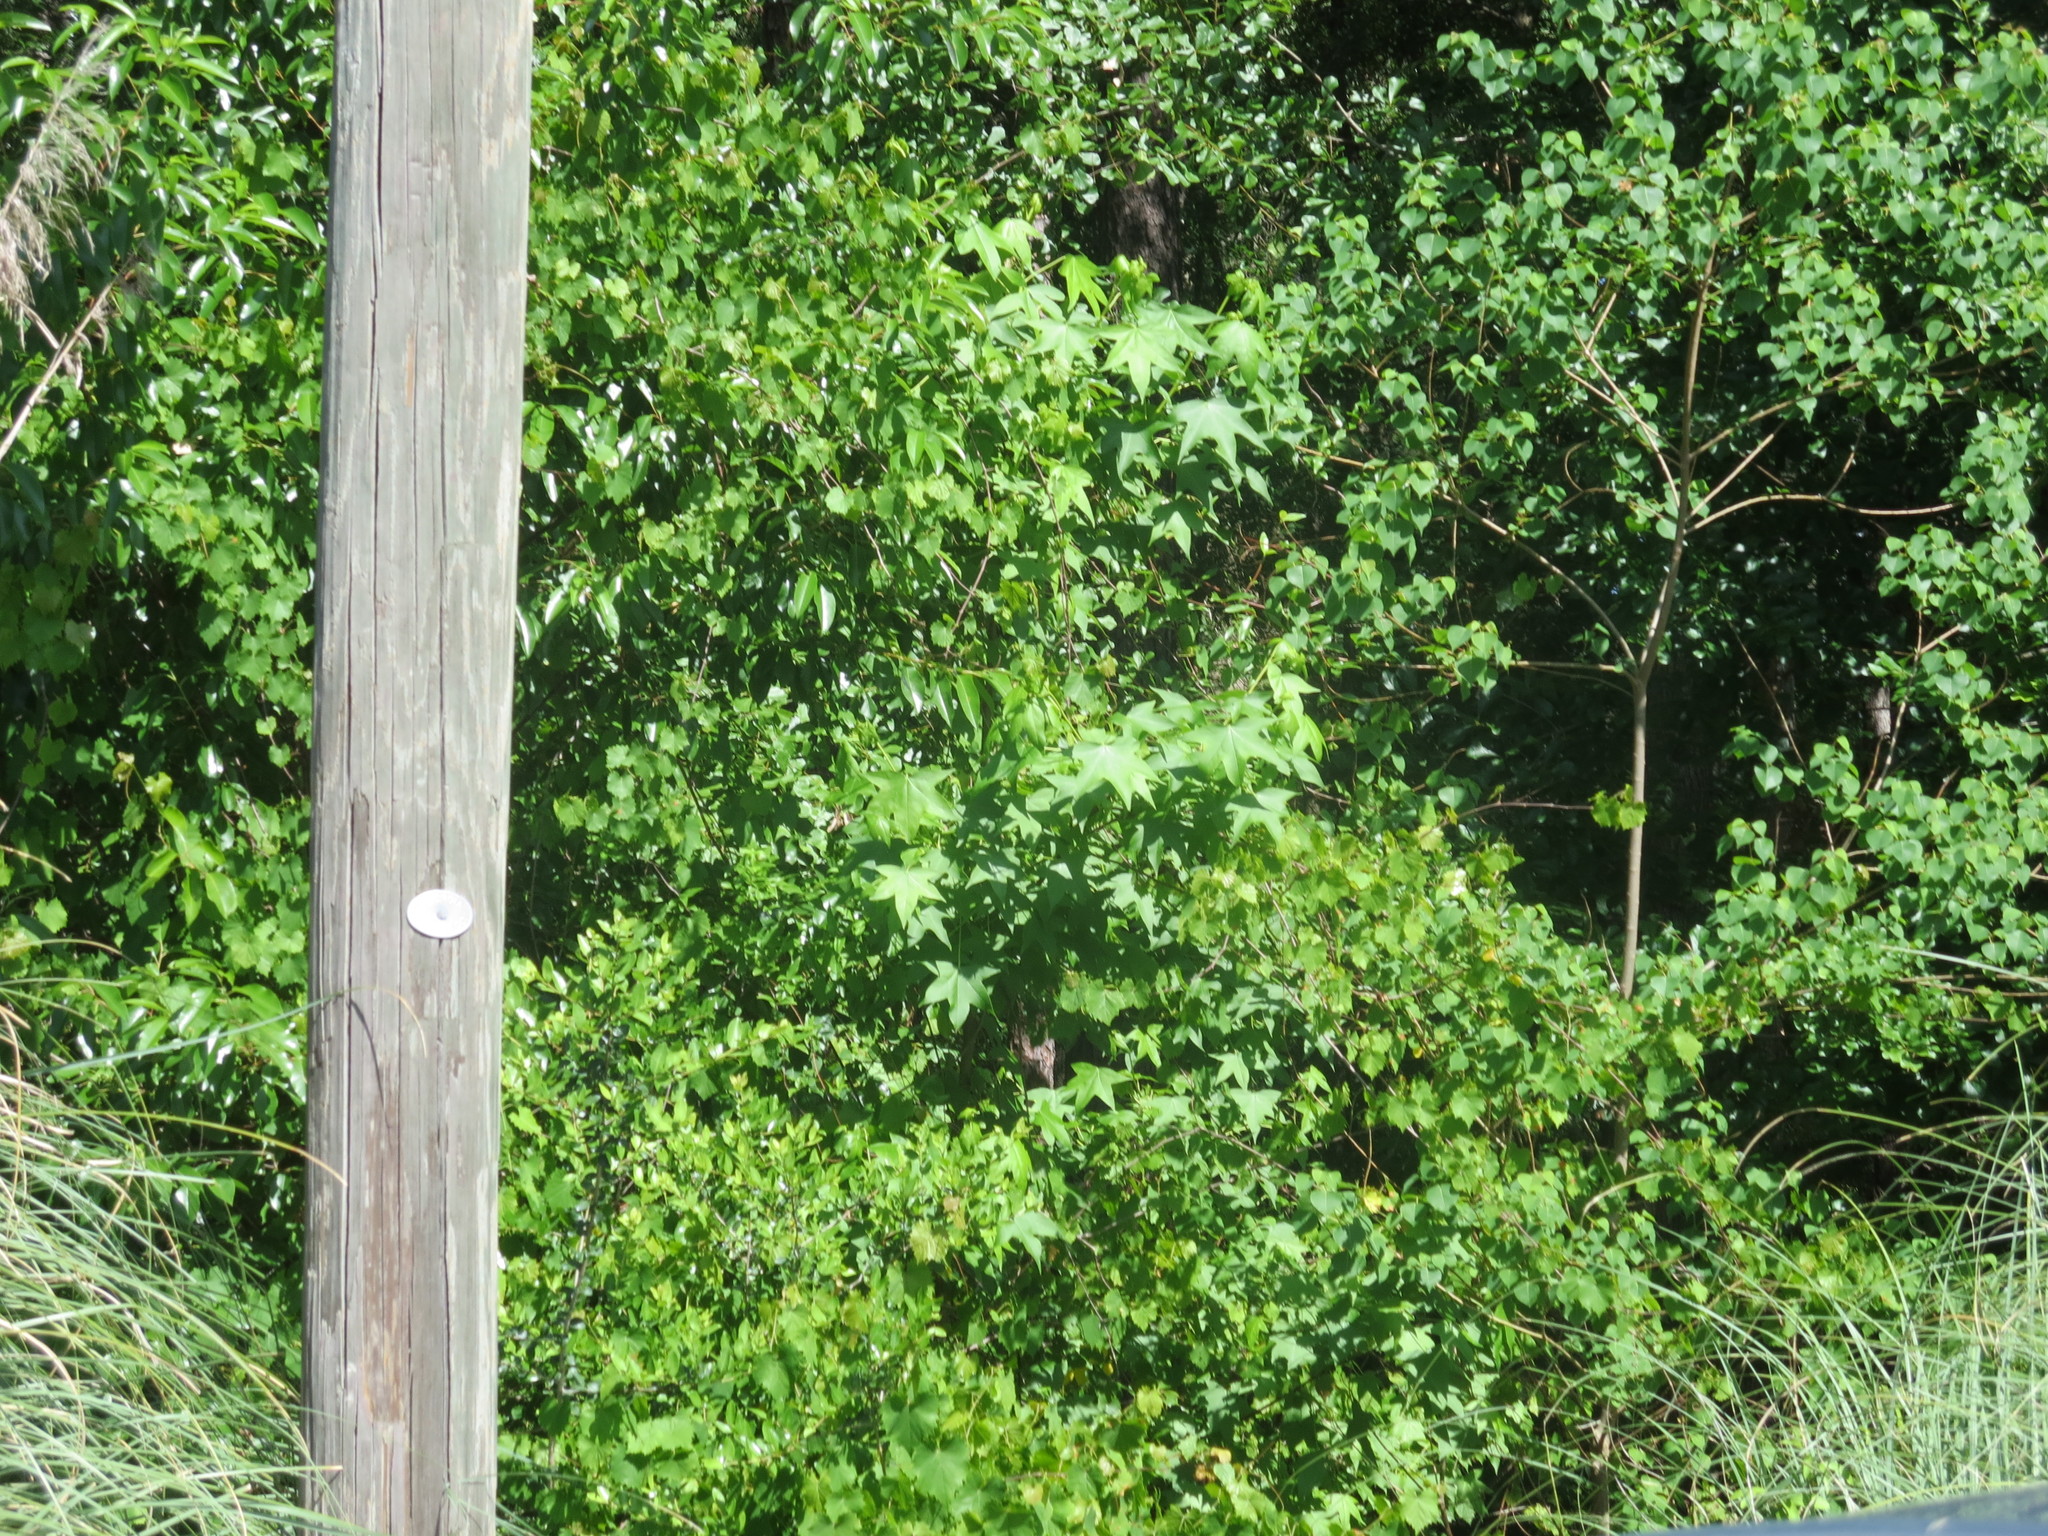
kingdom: Plantae
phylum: Tracheophyta
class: Magnoliopsida
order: Saxifragales
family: Altingiaceae
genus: Liquidambar
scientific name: Liquidambar styraciflua
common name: Sweet gum
